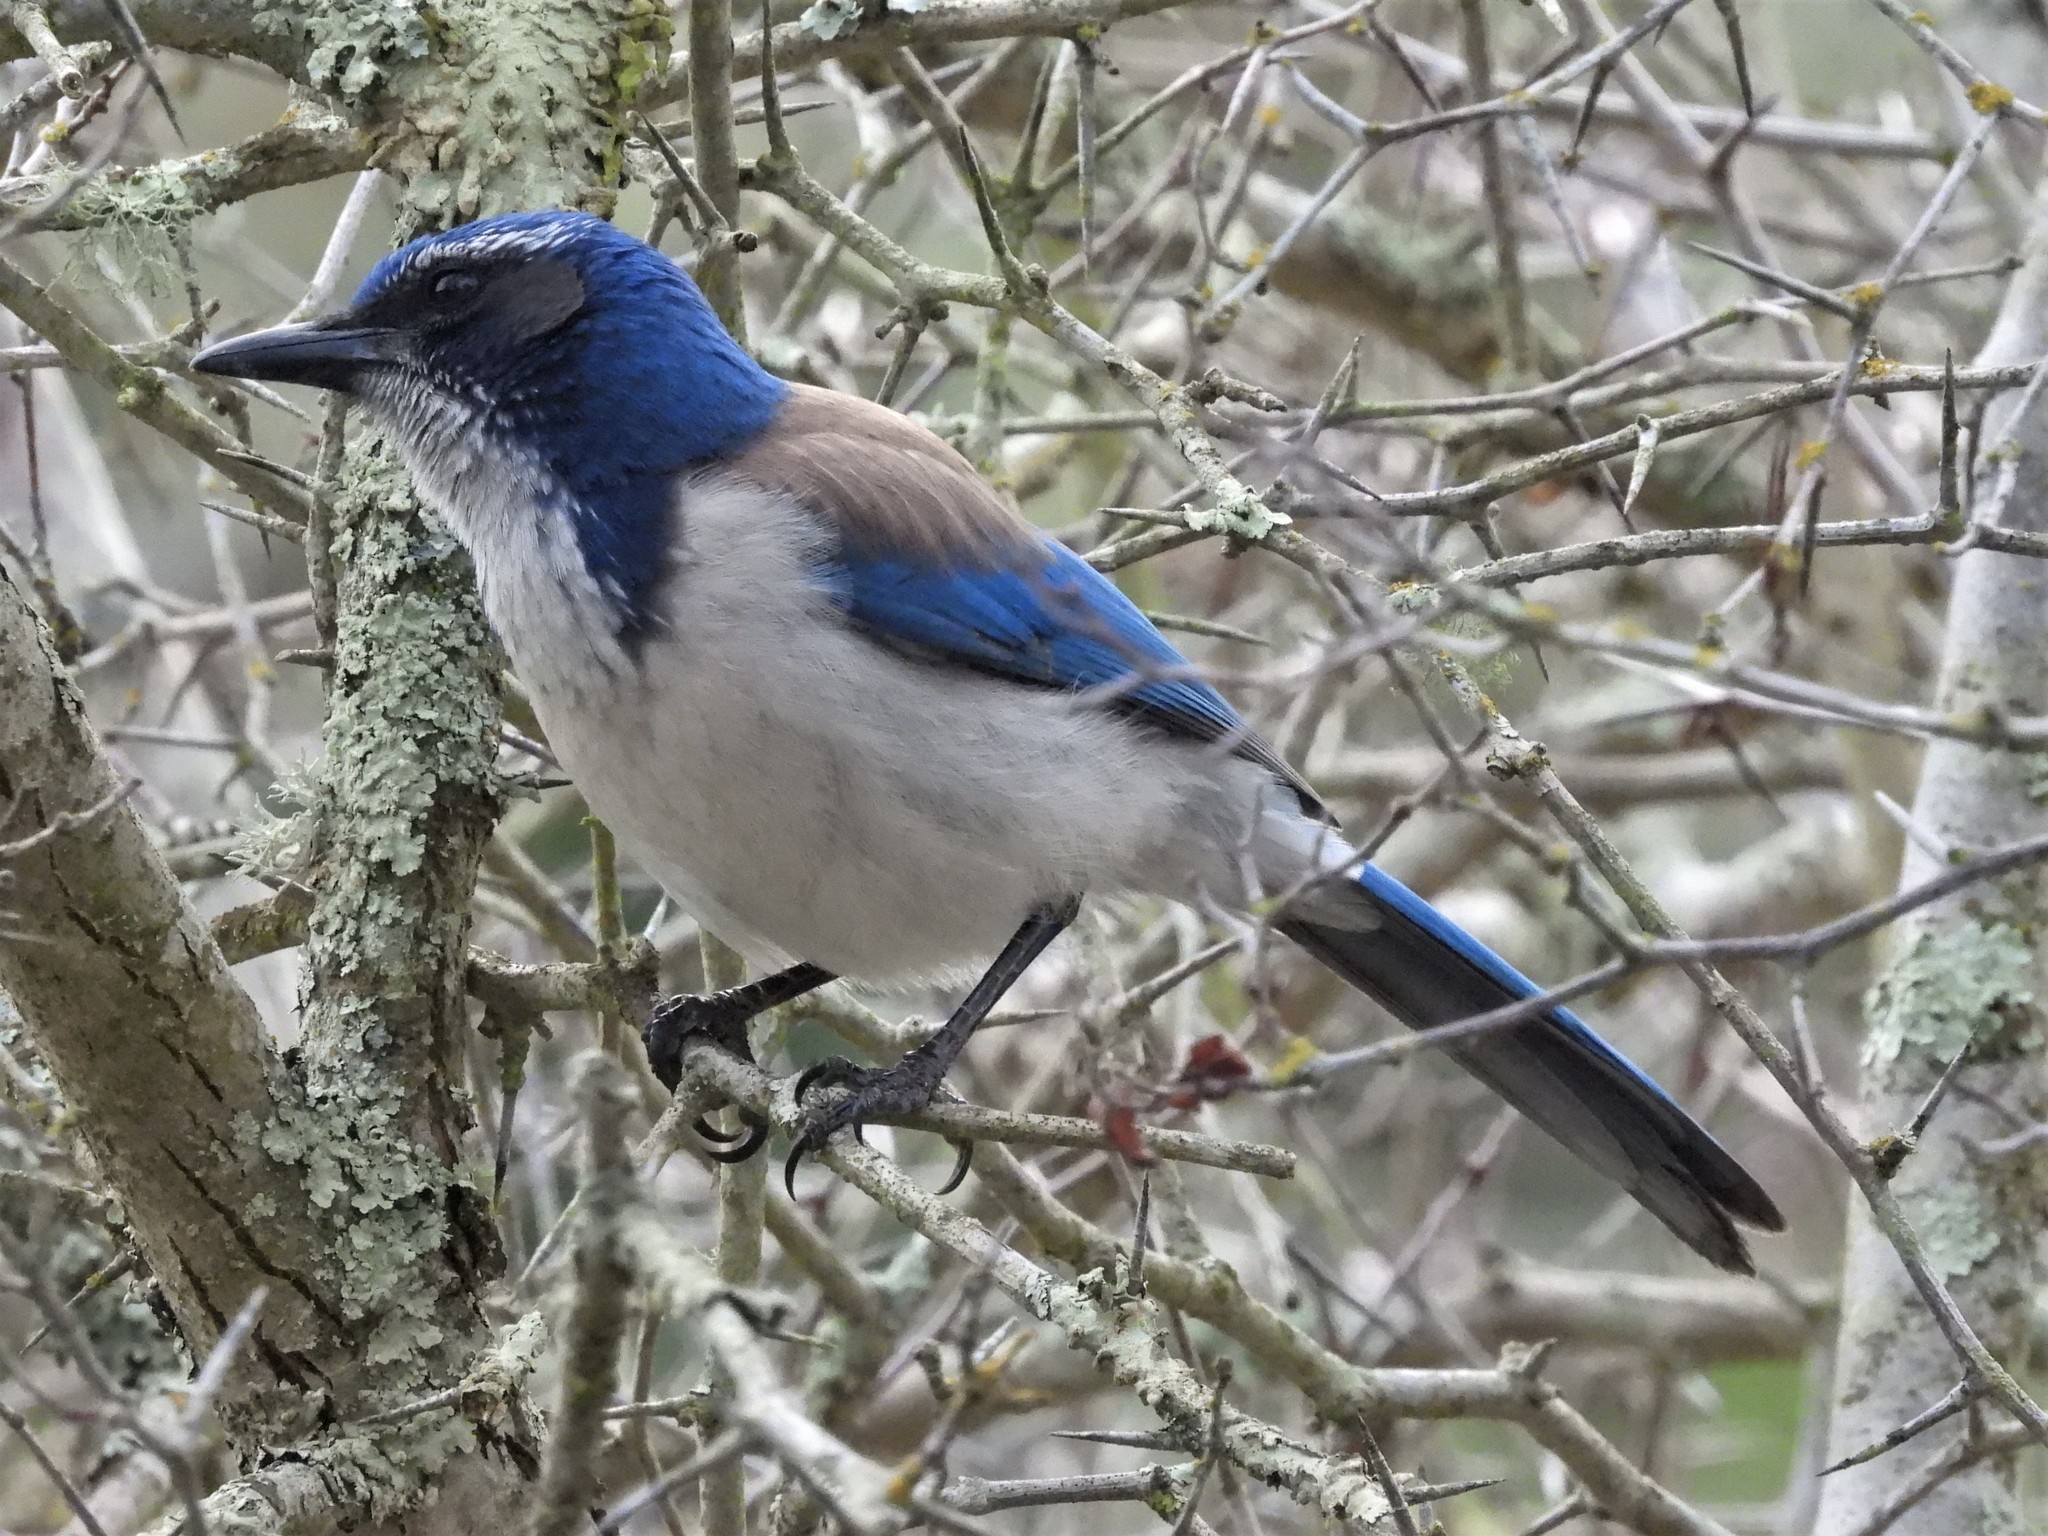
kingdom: Animalia
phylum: Chordata
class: Aves
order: Passeriformes
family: Corvidae
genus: Aphelocoma
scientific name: Aphelocoma californica
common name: California scrub-jay
